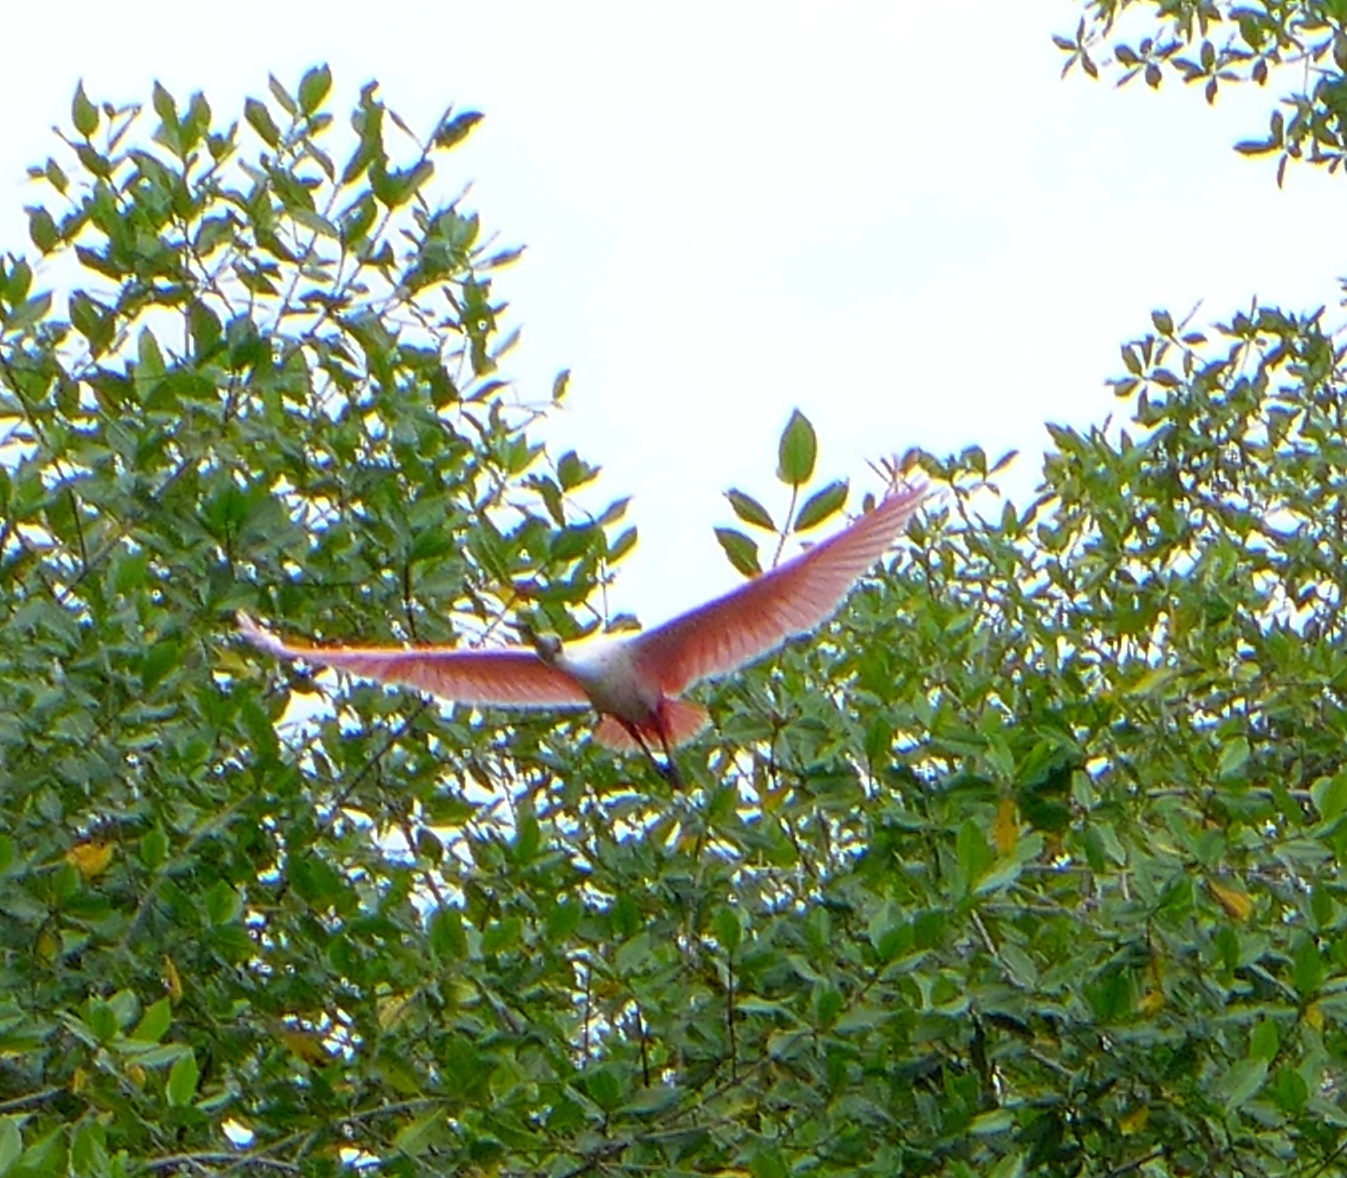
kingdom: Animalia
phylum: Chordata
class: Aves
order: Pelecaniformes
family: Threskiornithidae
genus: Platalea
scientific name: Platalea ajaja
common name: Roseate spoonbill
